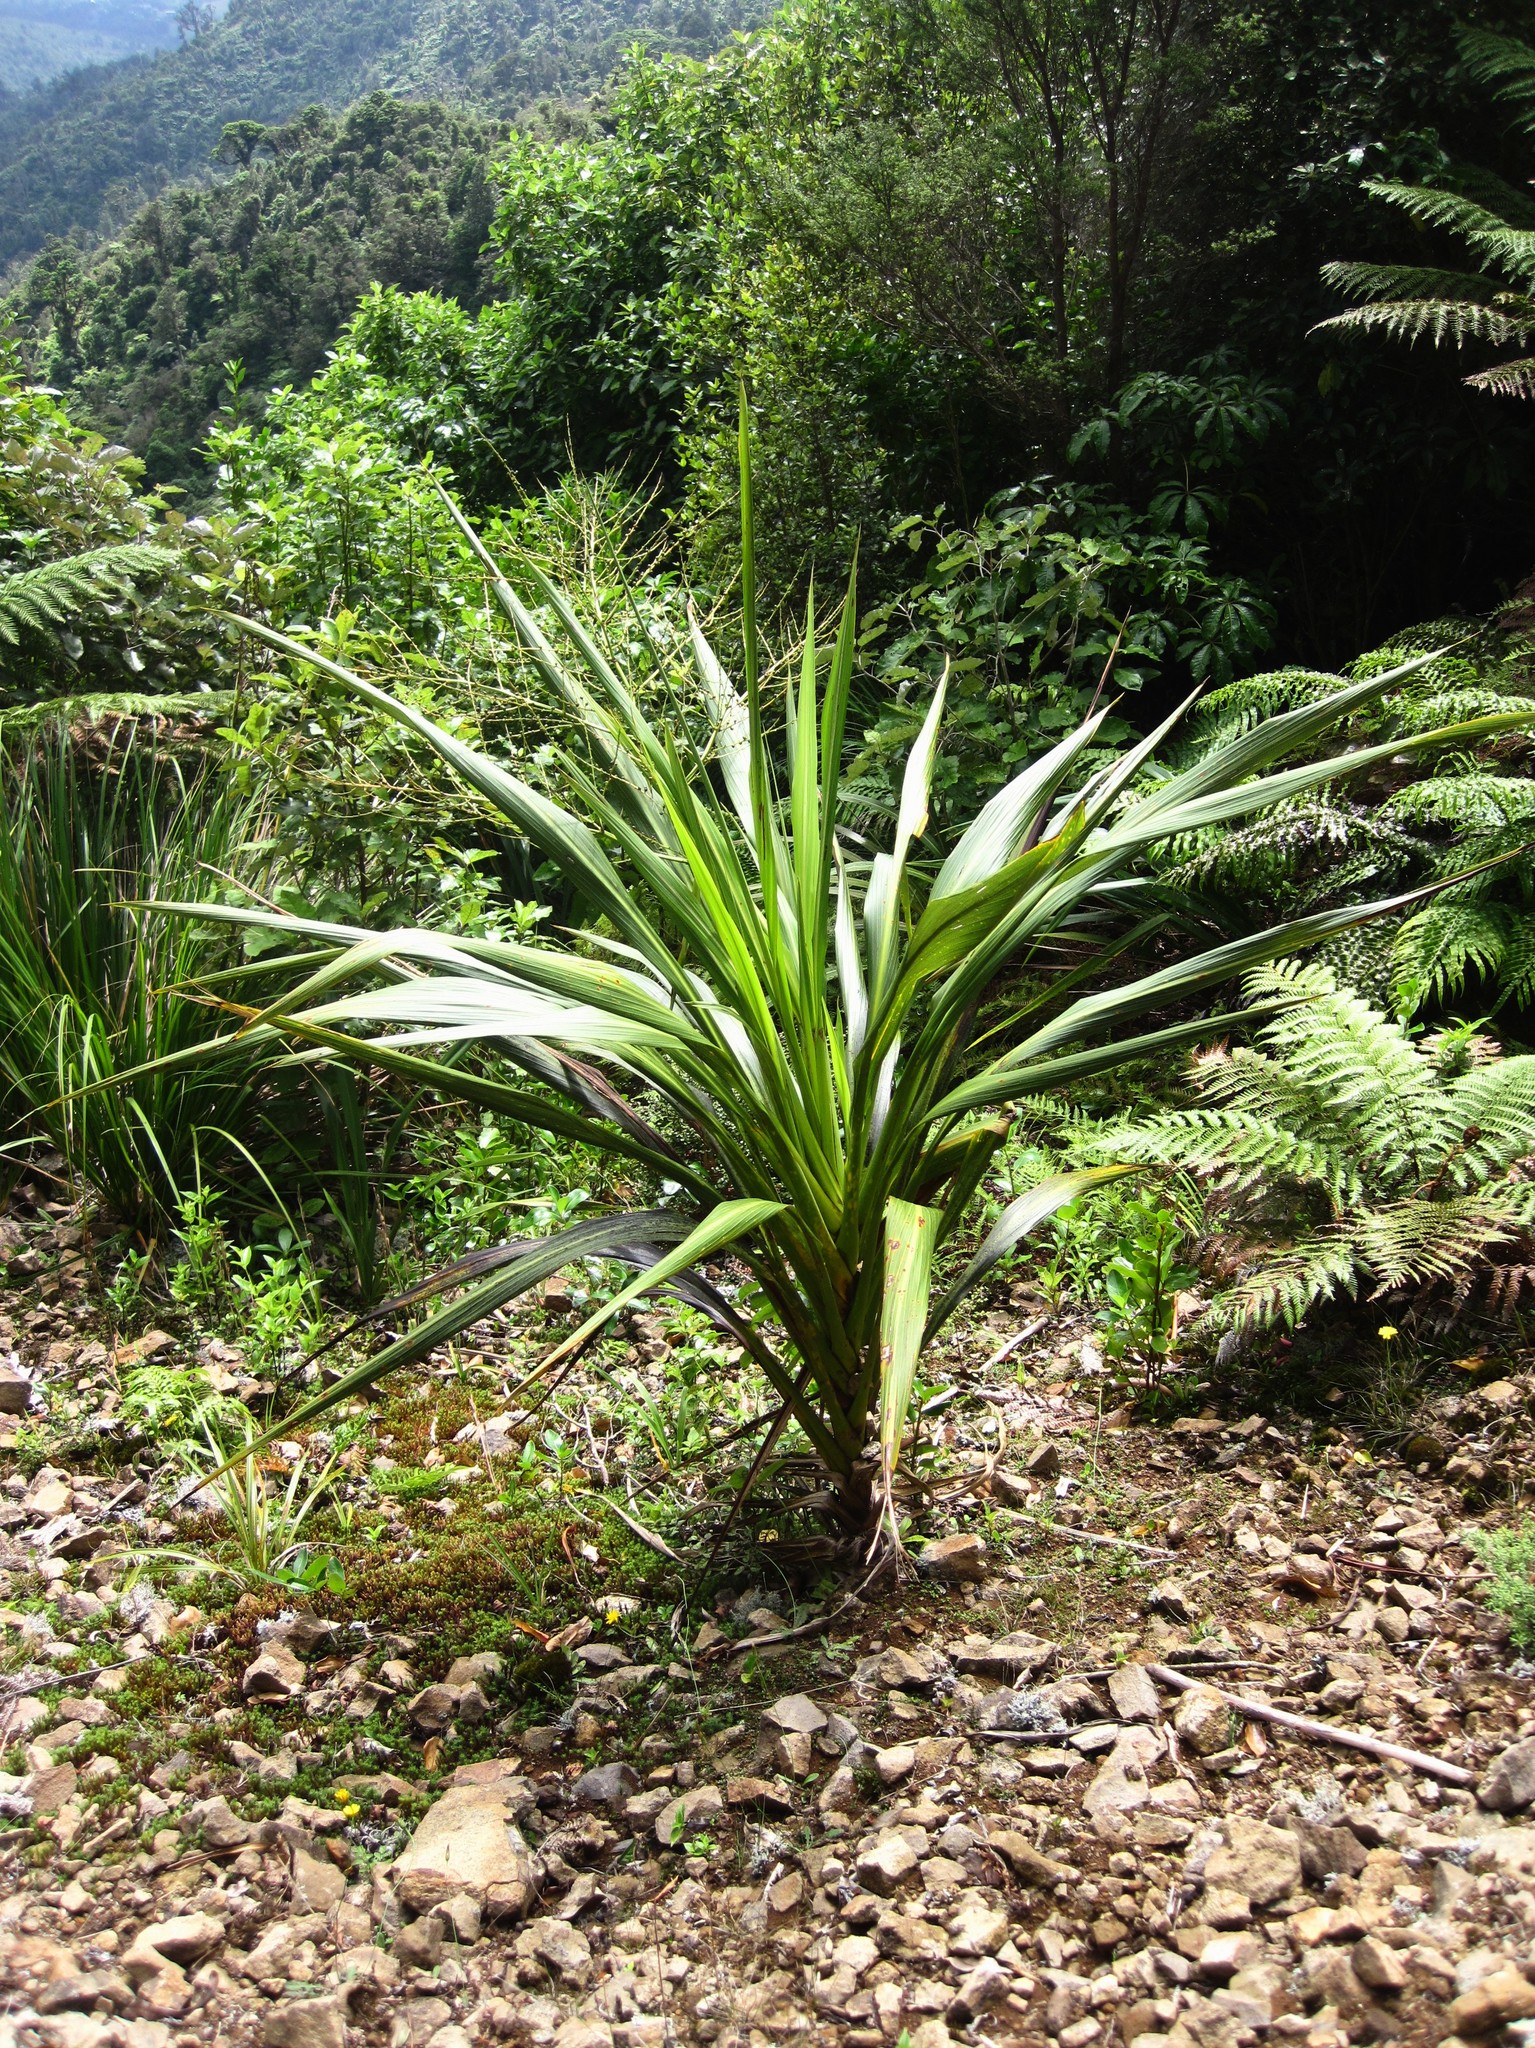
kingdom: Plantae
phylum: Tracheophyta
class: Liliopsida
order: Asparagales
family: Asparagaceae
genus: Cordyline
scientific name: Cordyline banksii
